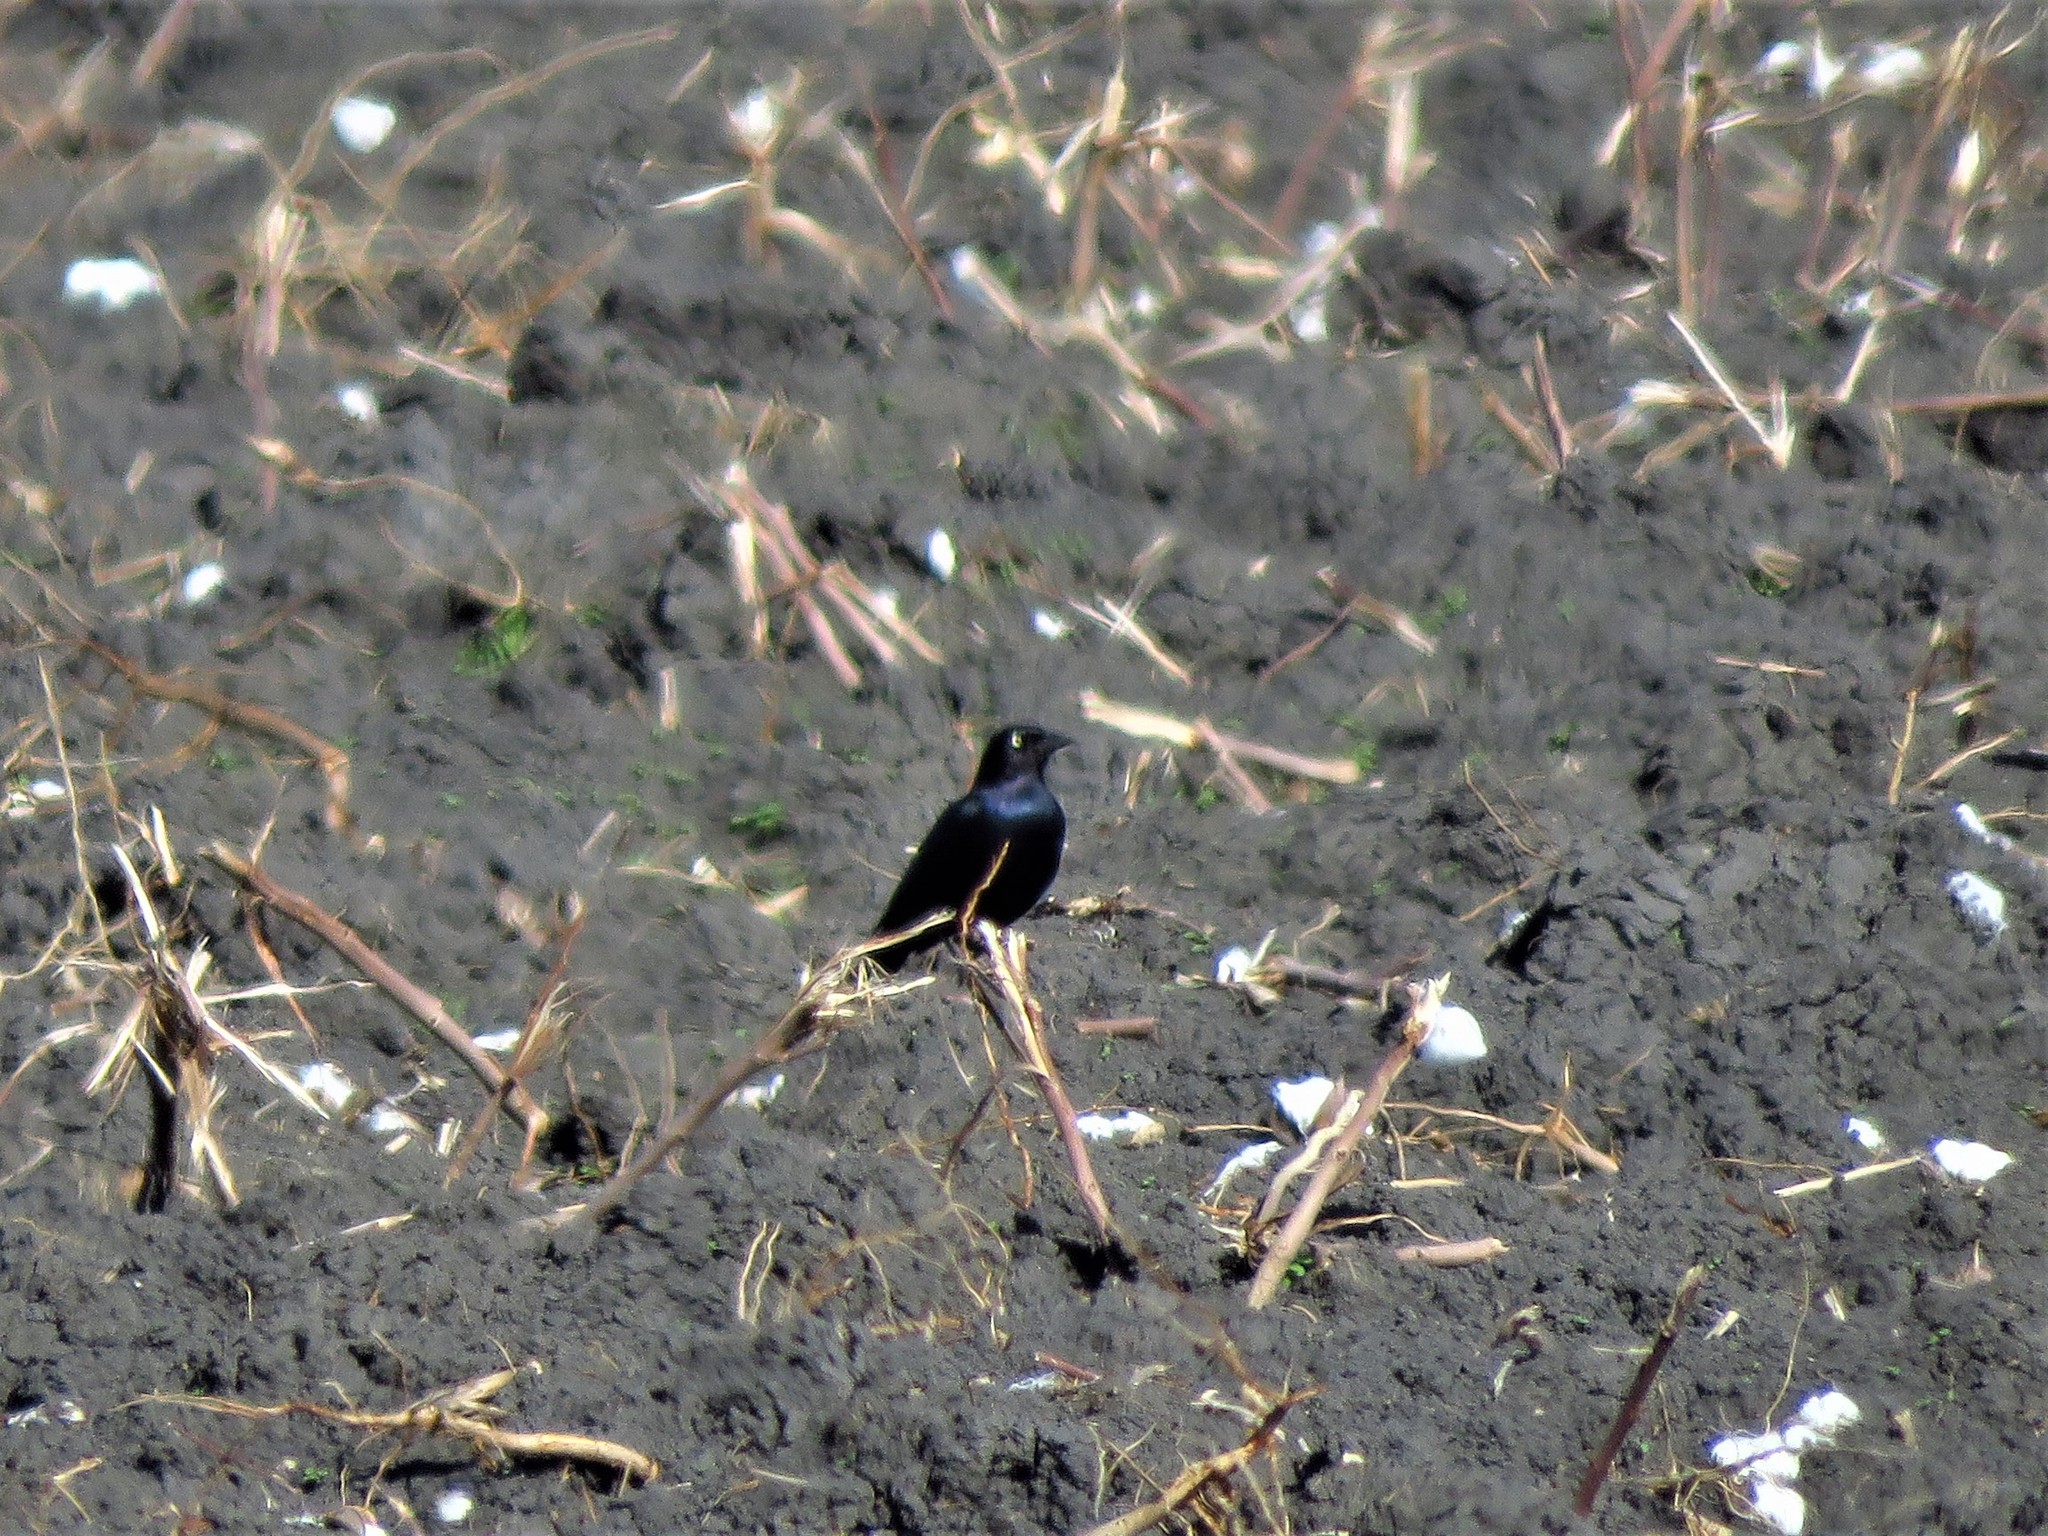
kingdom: Animalia
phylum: Chordata
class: Aves
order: Passeriformes
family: Icteridae
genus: Euphagus
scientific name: Euphagus cyanocephalus
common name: Brewer's blackbird
